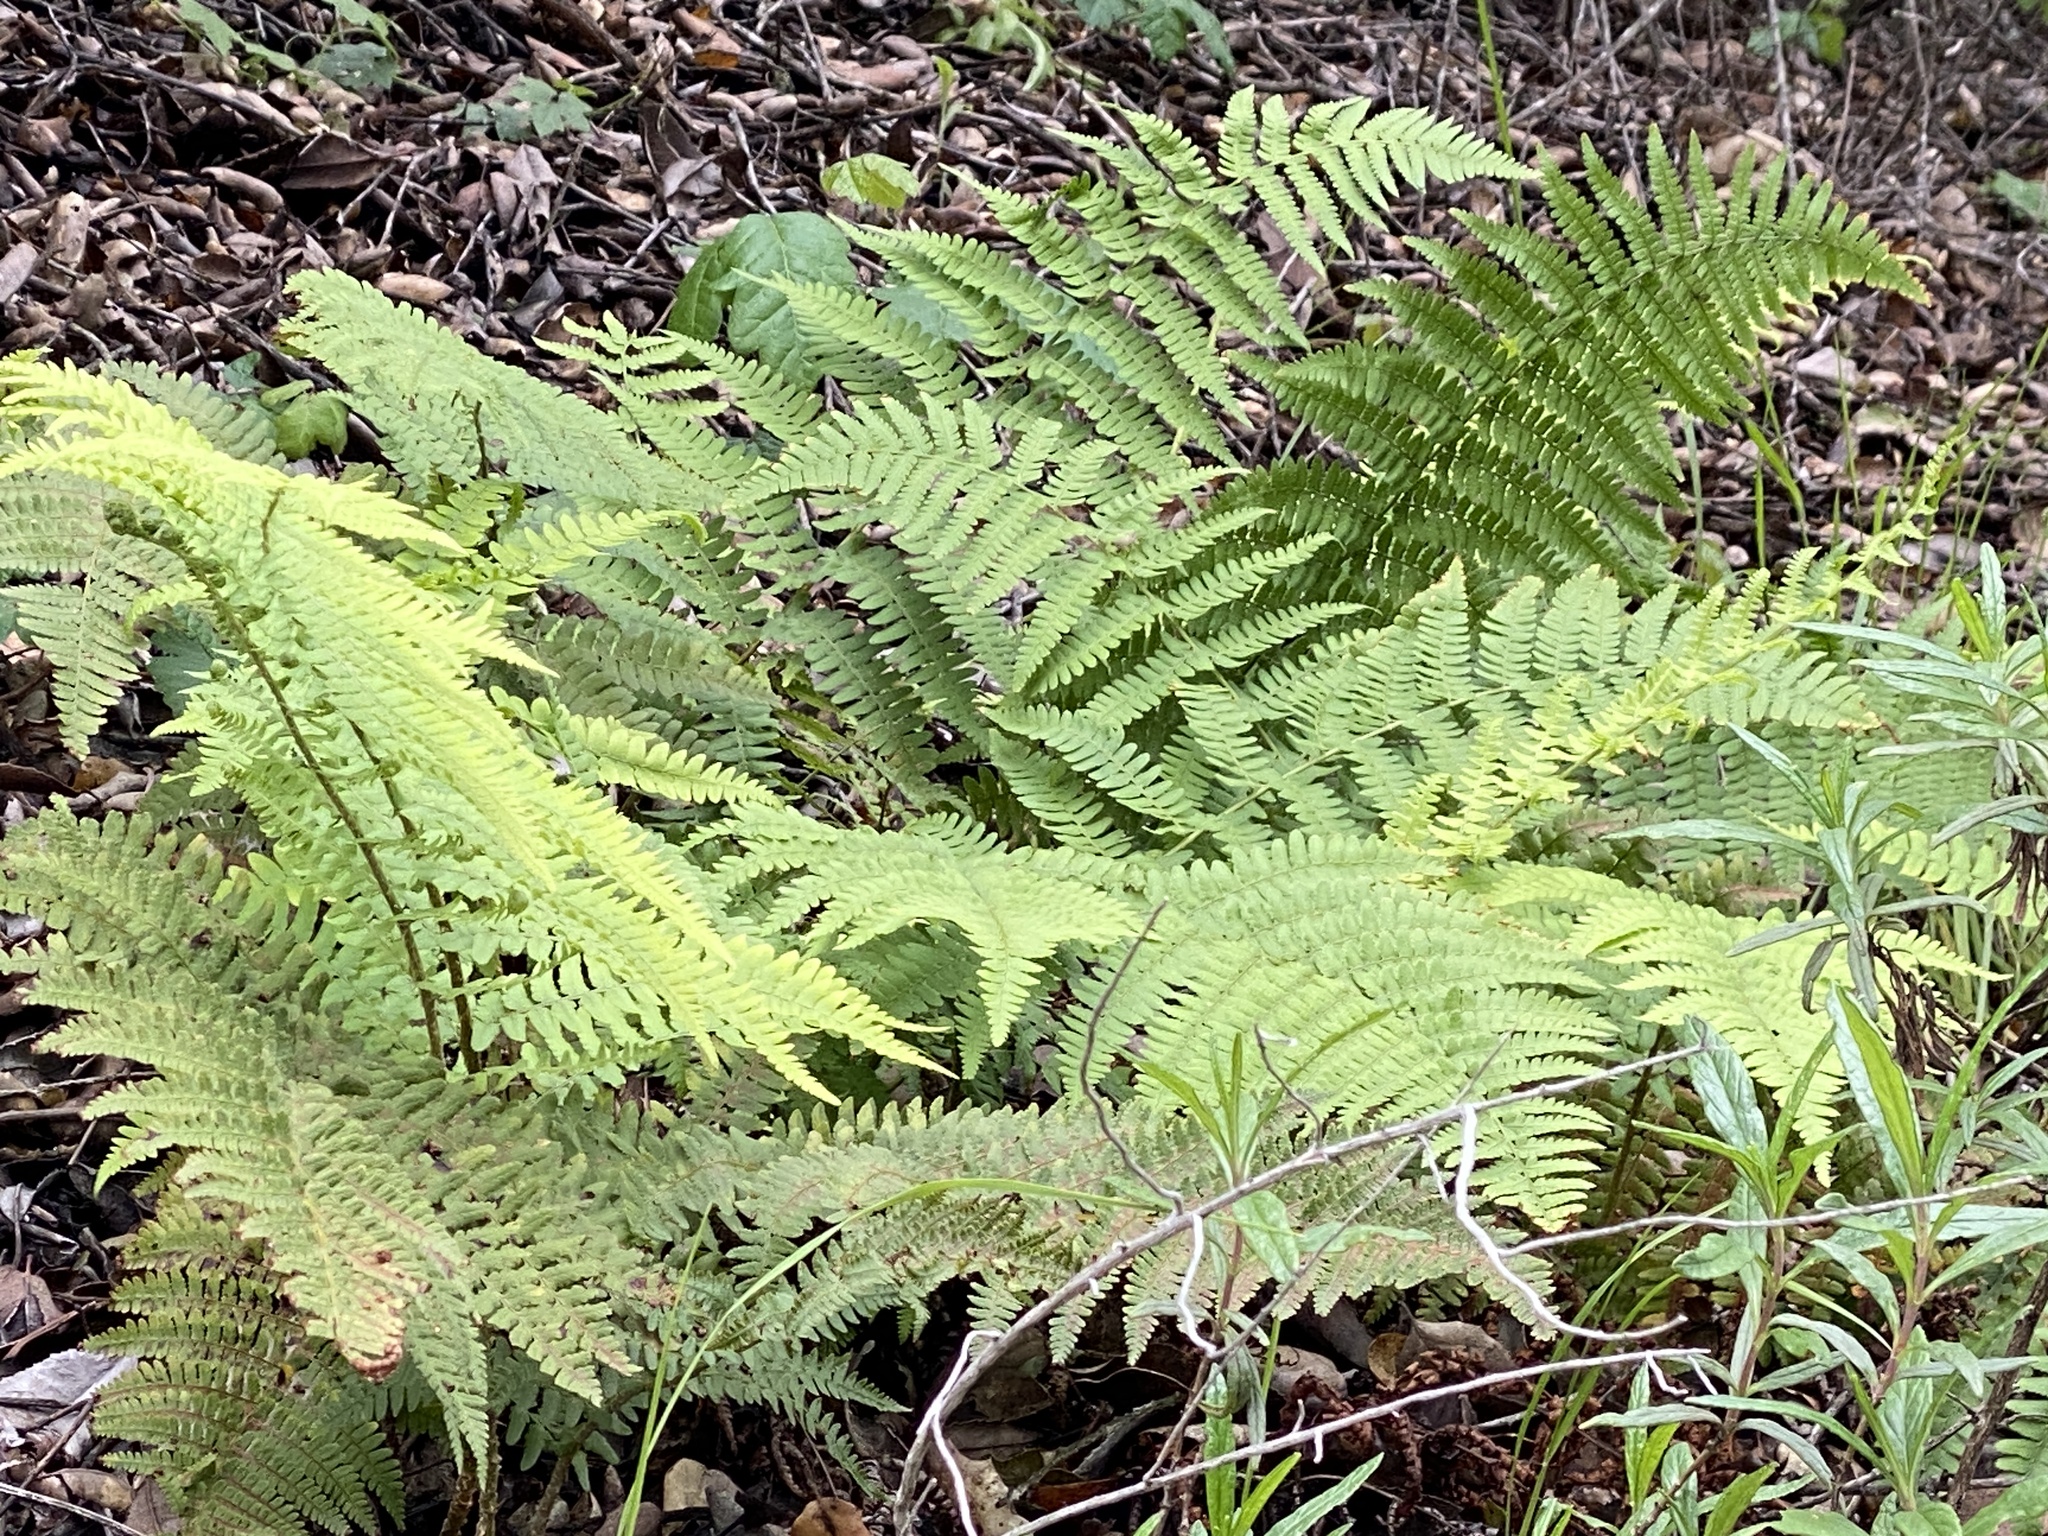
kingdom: Plantae
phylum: Tracheophyta
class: Polypodiopsida
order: Polypodiales
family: Dryopteridaceae
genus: Dryopteris
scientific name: Dryopteris arguta
